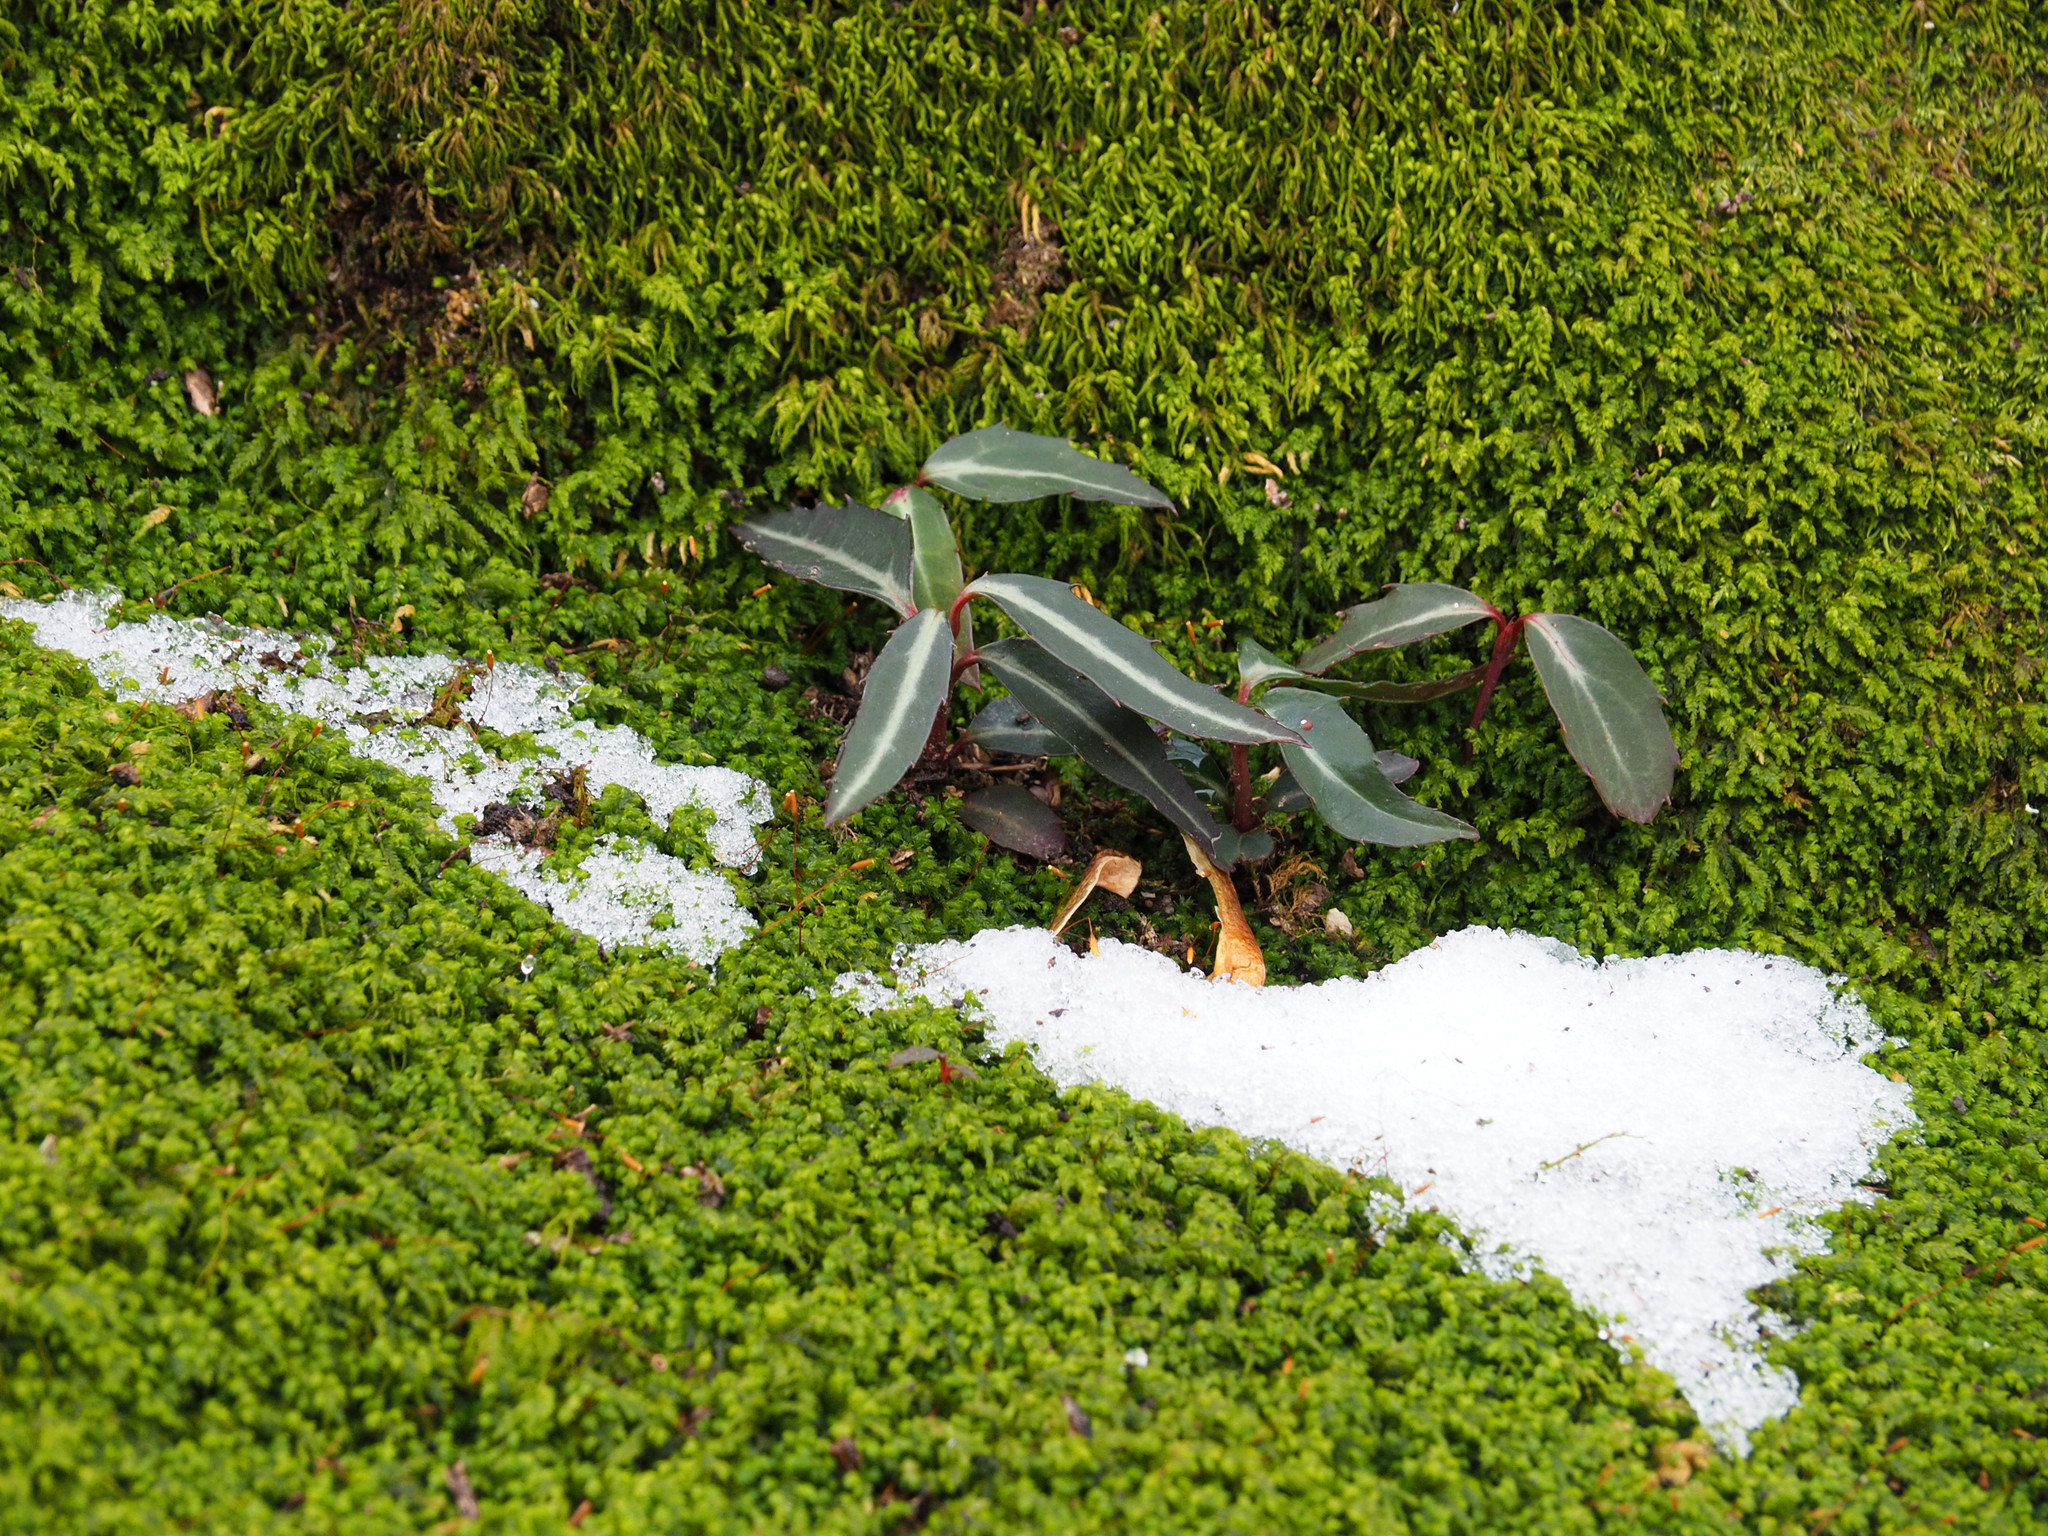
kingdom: Plantae
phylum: Tracheophyta
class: Magnoliopsida
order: Ericales
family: Ericaceae
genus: Chimaphila
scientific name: Chimaphila maculata
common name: Spotted pipsissewa
